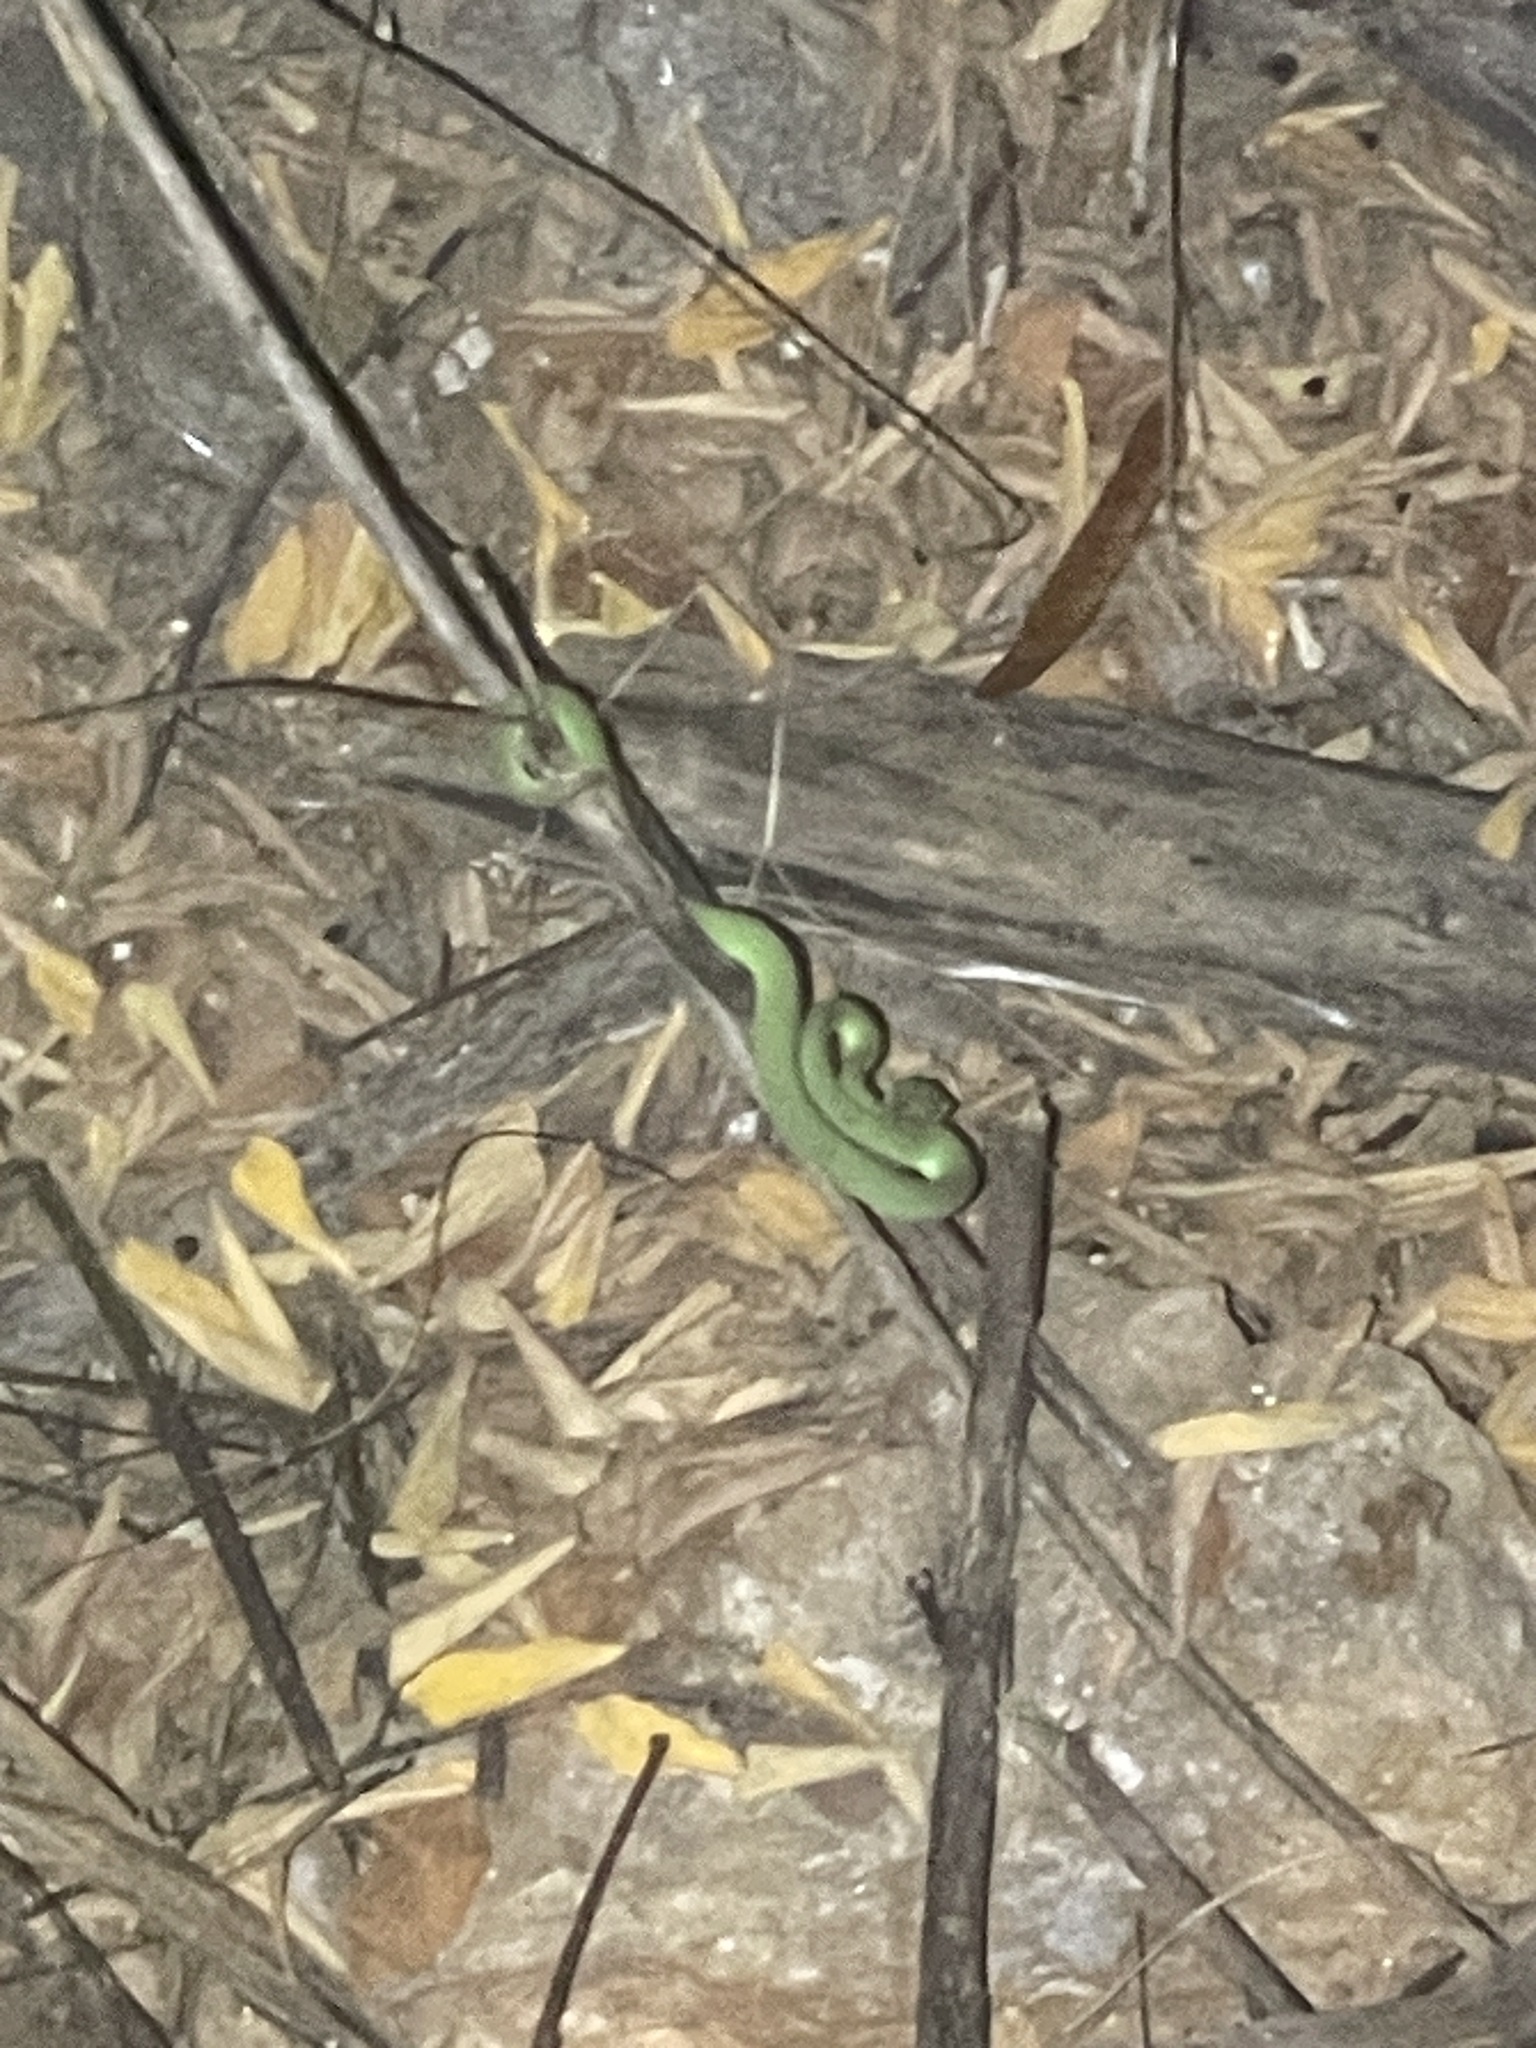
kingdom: Animalia
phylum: Chordata
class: Squamata
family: Viperidae
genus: Trimeresurus
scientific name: Trimeresurus macrops
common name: Kramer's pit viper
